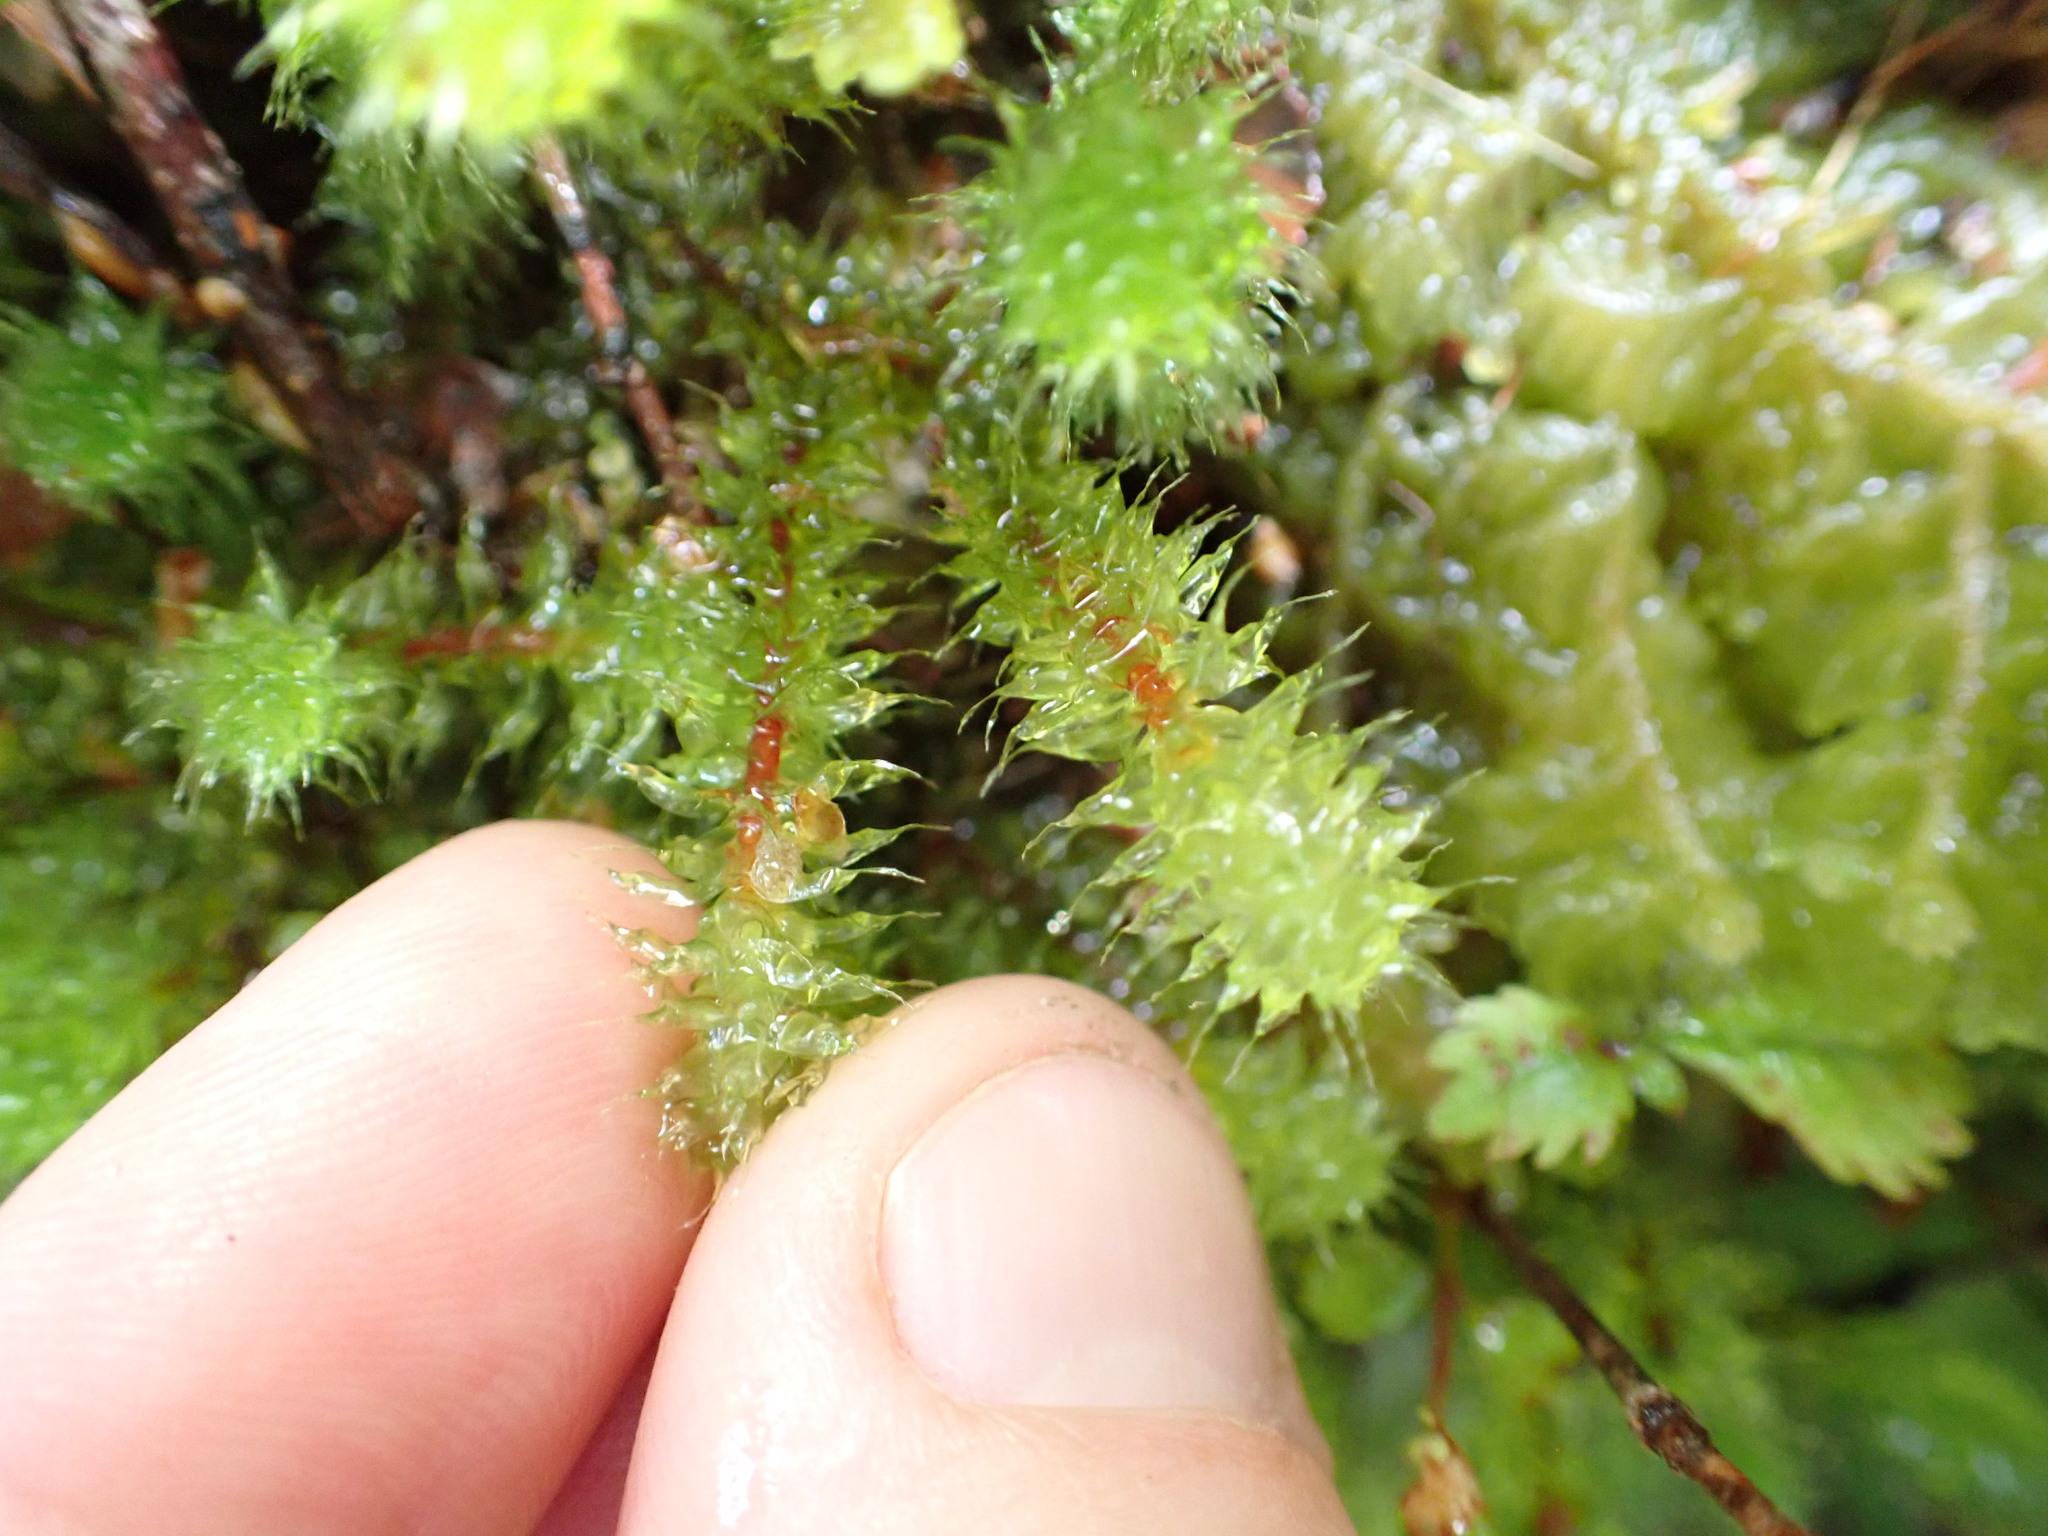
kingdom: Plantae
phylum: Bryophyta
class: Bryopsida
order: Ptychomniales
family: Ptychomniaceae
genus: Ptychomnion
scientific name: Ptychomnion aciculare
